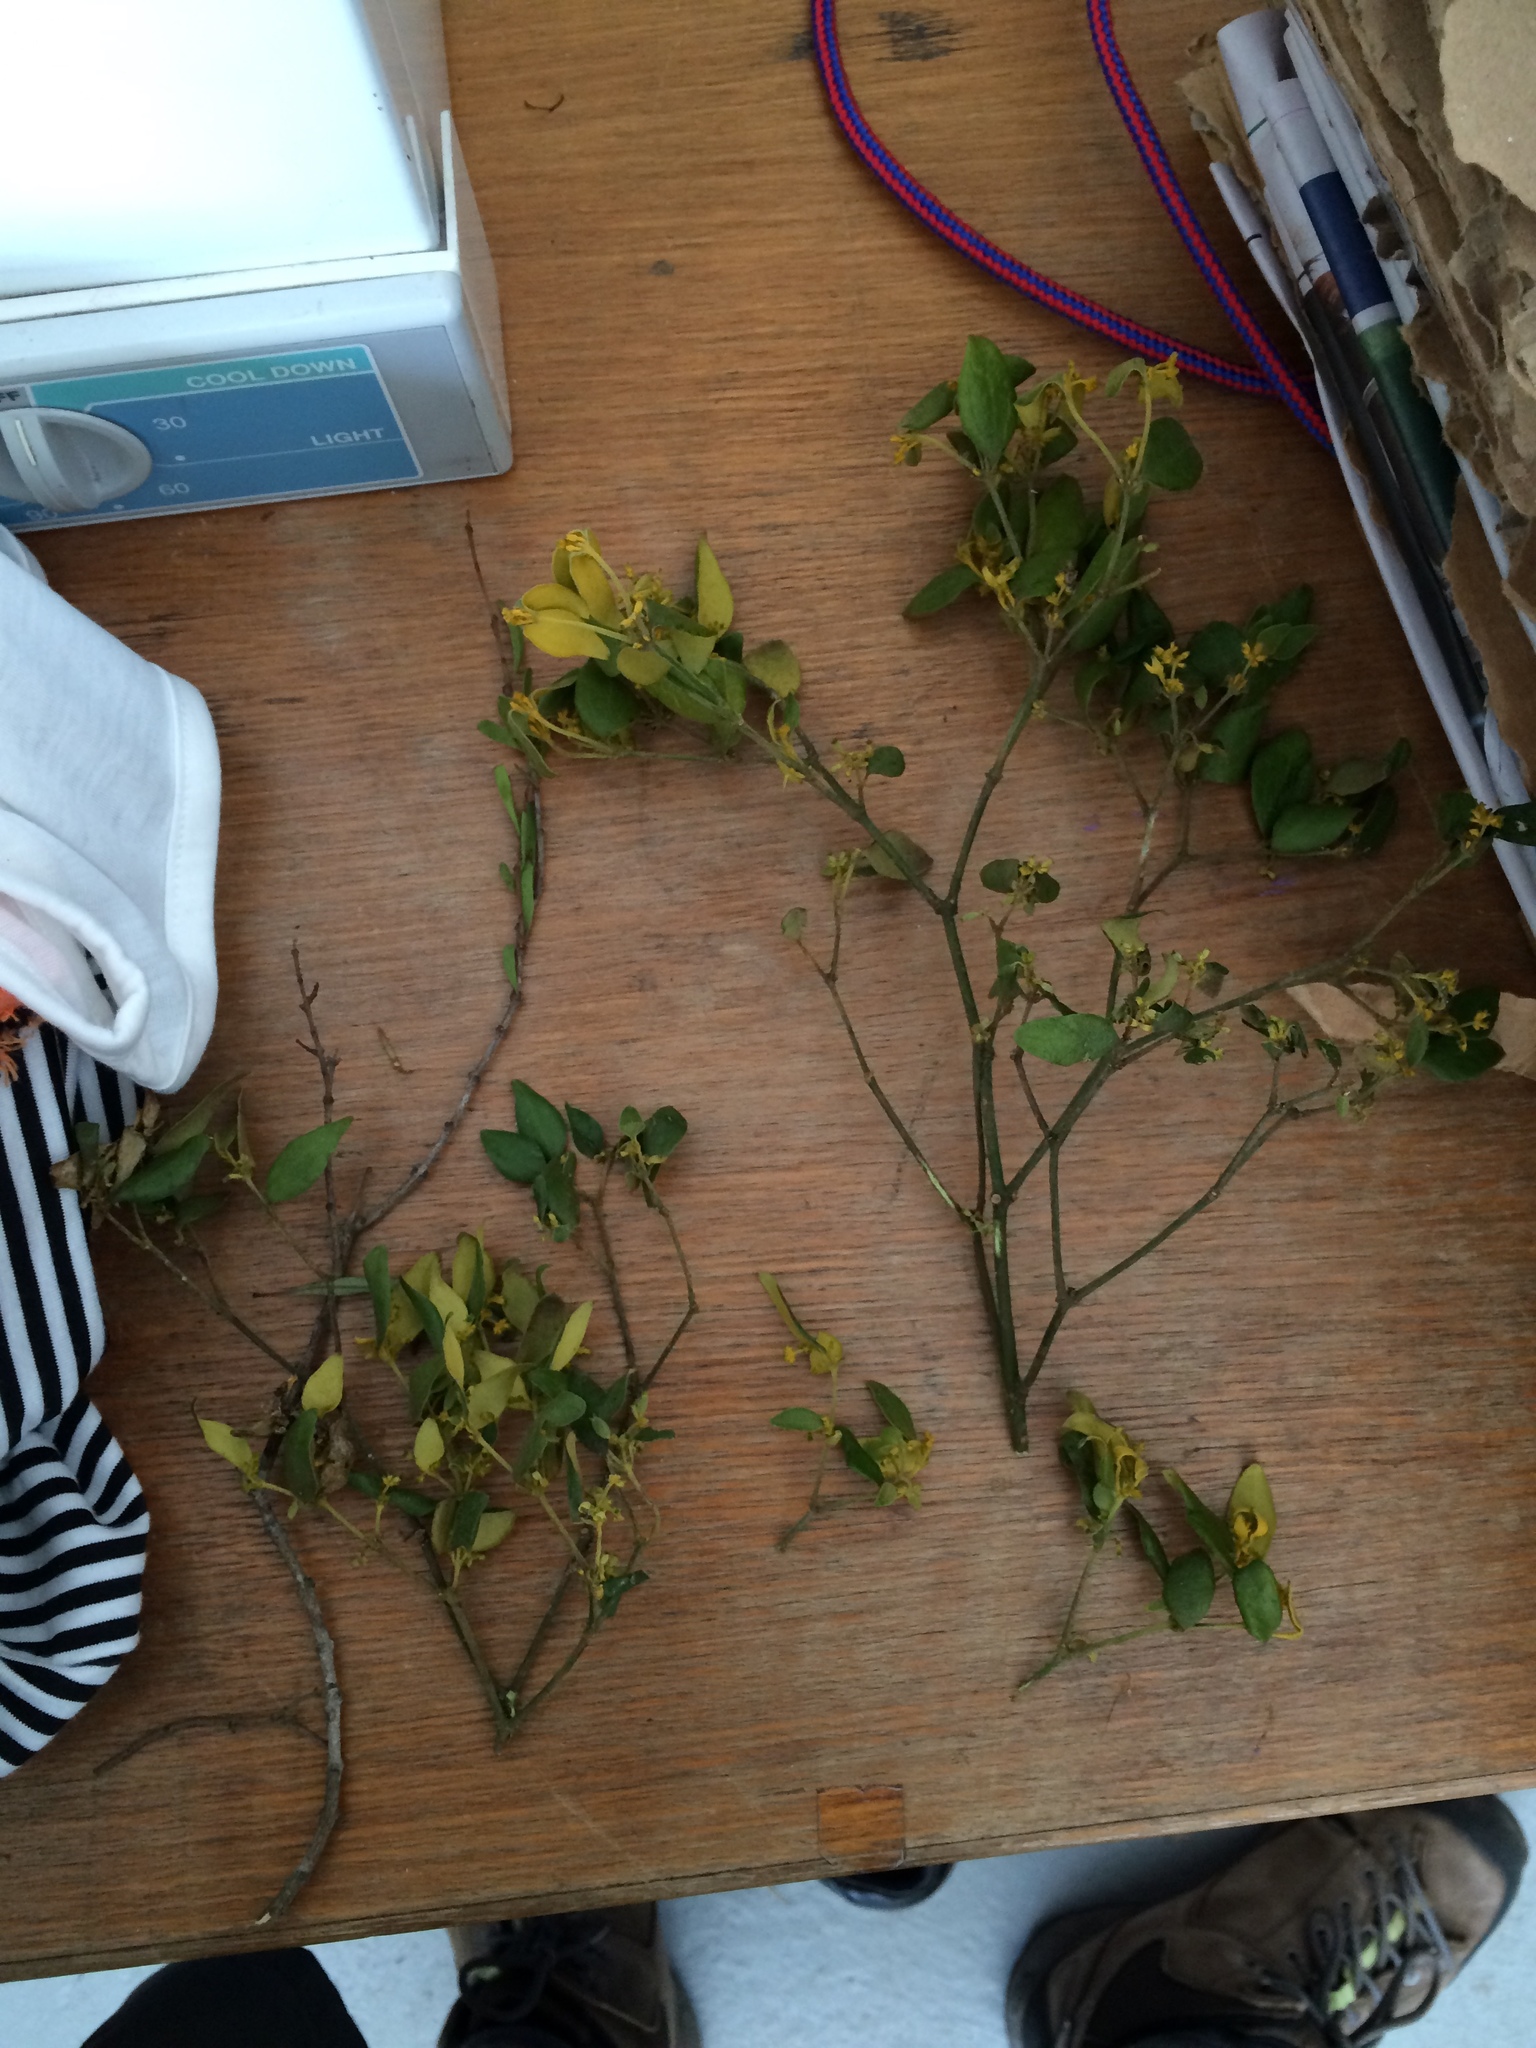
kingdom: Plantae
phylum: Tracheophyta
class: Magnoliopsida
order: Santalales
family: Viscaceae
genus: Notothixos
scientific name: Notothixos subaureus
